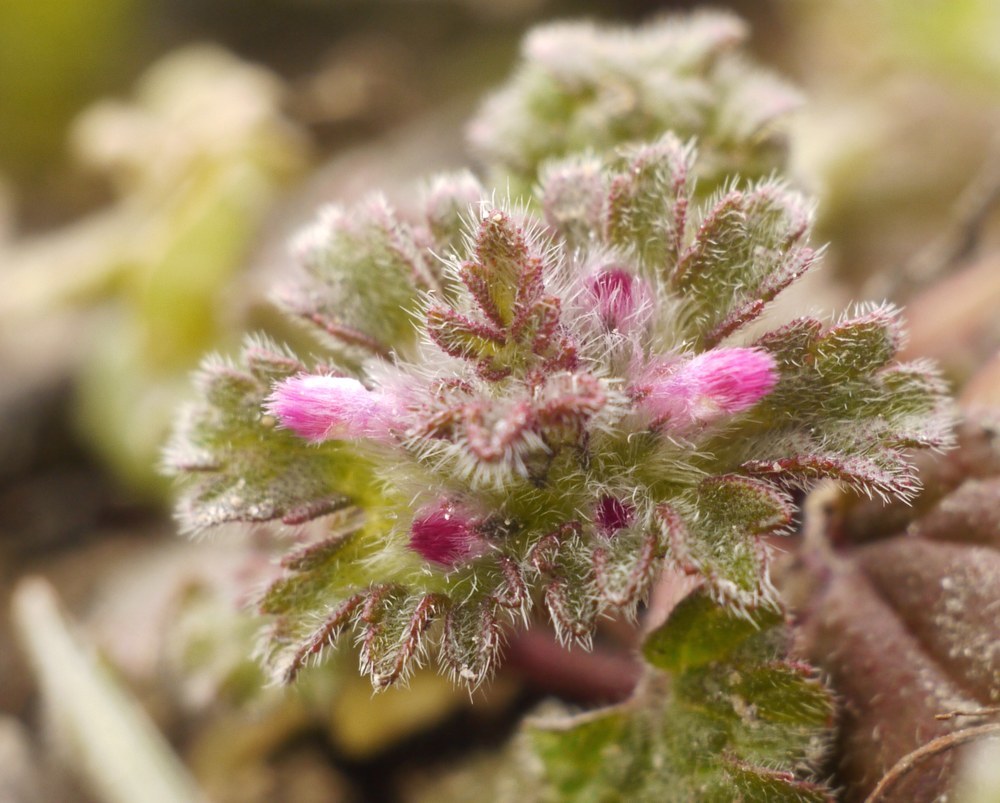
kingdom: Plantae
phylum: Tracheophyta
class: Magnoliopsida
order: Lamiales
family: Lamiaceae
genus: Lamium
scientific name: Lamium amplexicaule
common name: Henbit dead-nettle
